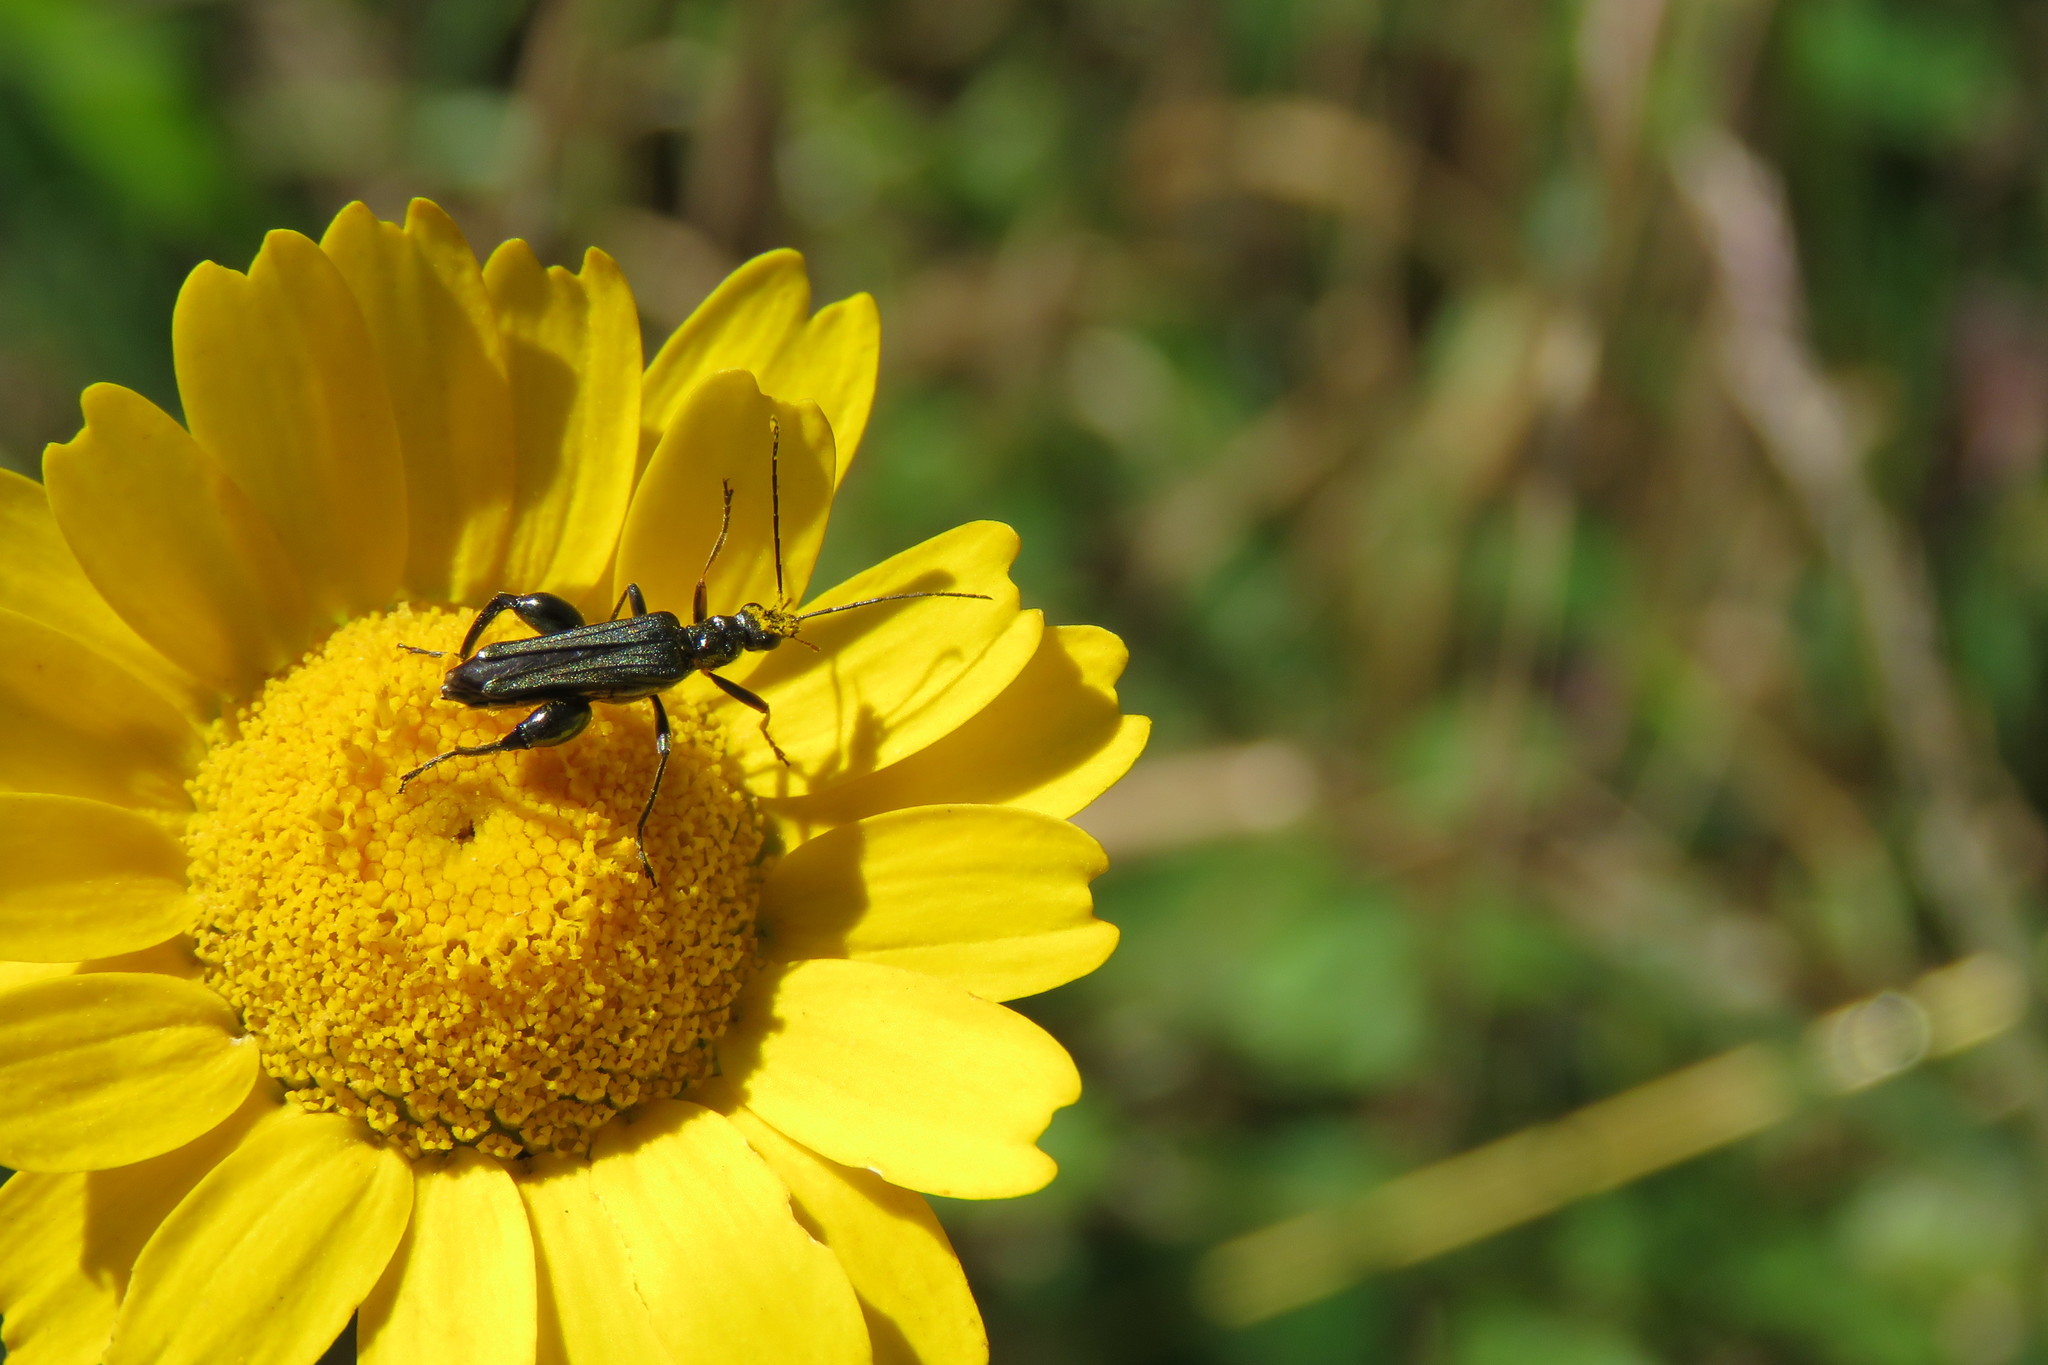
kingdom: Animalia
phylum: Arthropoda
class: Insecta
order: Coleoptera
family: Oedemeridae
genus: Oedemera
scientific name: Oedemera flavipes
